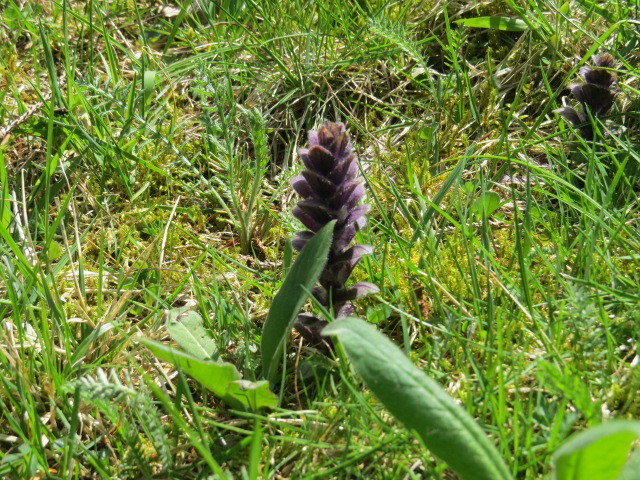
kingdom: Plantae
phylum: Tracheophyta
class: Magnoliopsida
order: Lamiales
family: Lamiaceae
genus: Ajuga
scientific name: Ajuga pyramidalis
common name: Pyramid bugle
